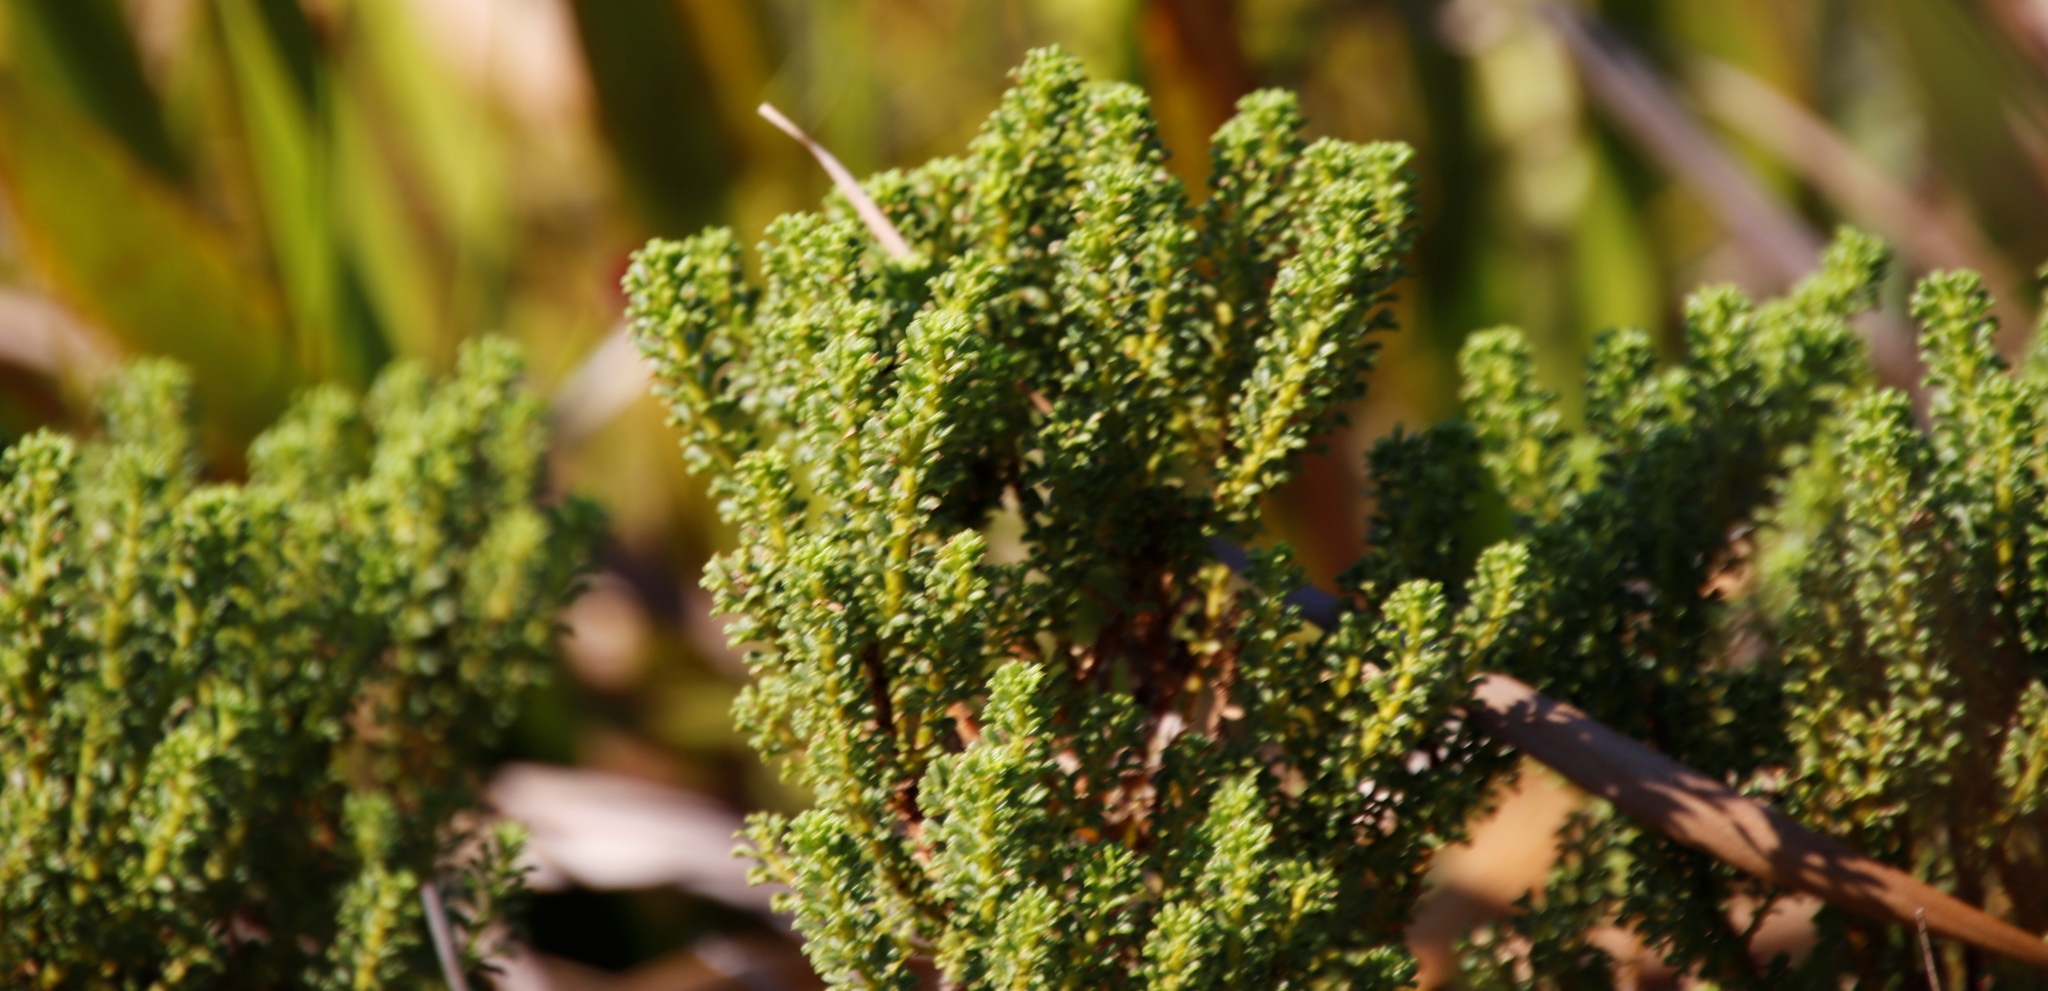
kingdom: Plantae
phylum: Tracheophyta
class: Magnoliopsida
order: Fabales
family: Fabaceae
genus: Psoralea
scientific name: Psoralea aculeata
